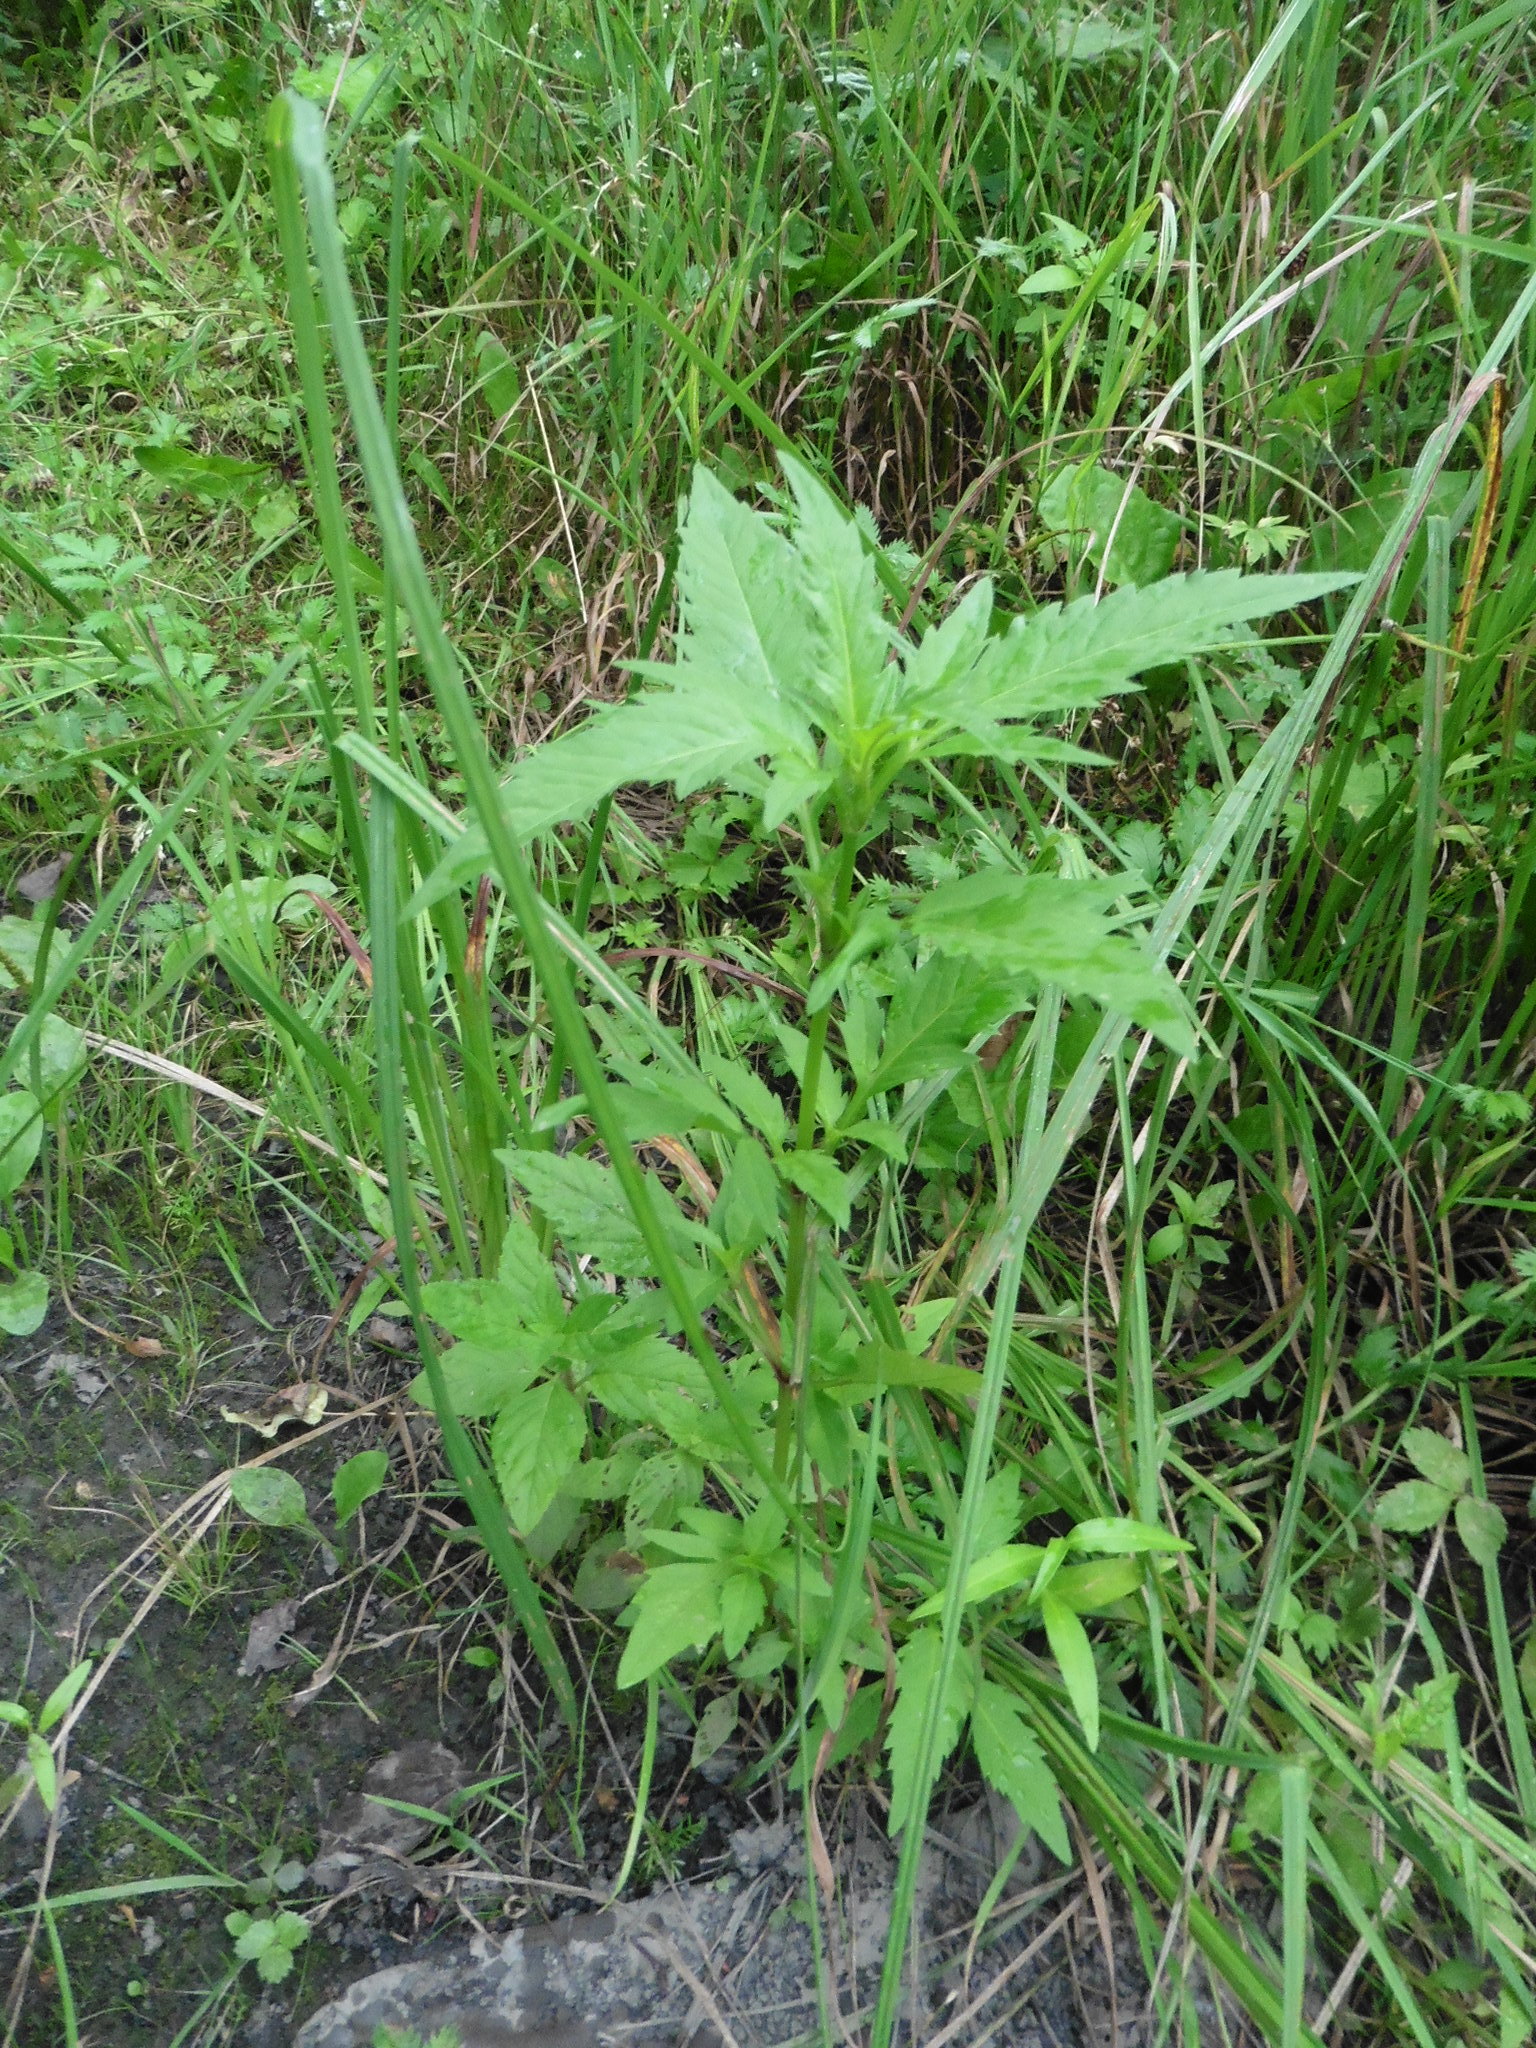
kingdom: Plantae
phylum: Tracheophyta
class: Magnoliopsida
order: Asterales
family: Asteraceae
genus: Bidens
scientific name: Bidens tripartita
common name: Trifid bur-marigold
